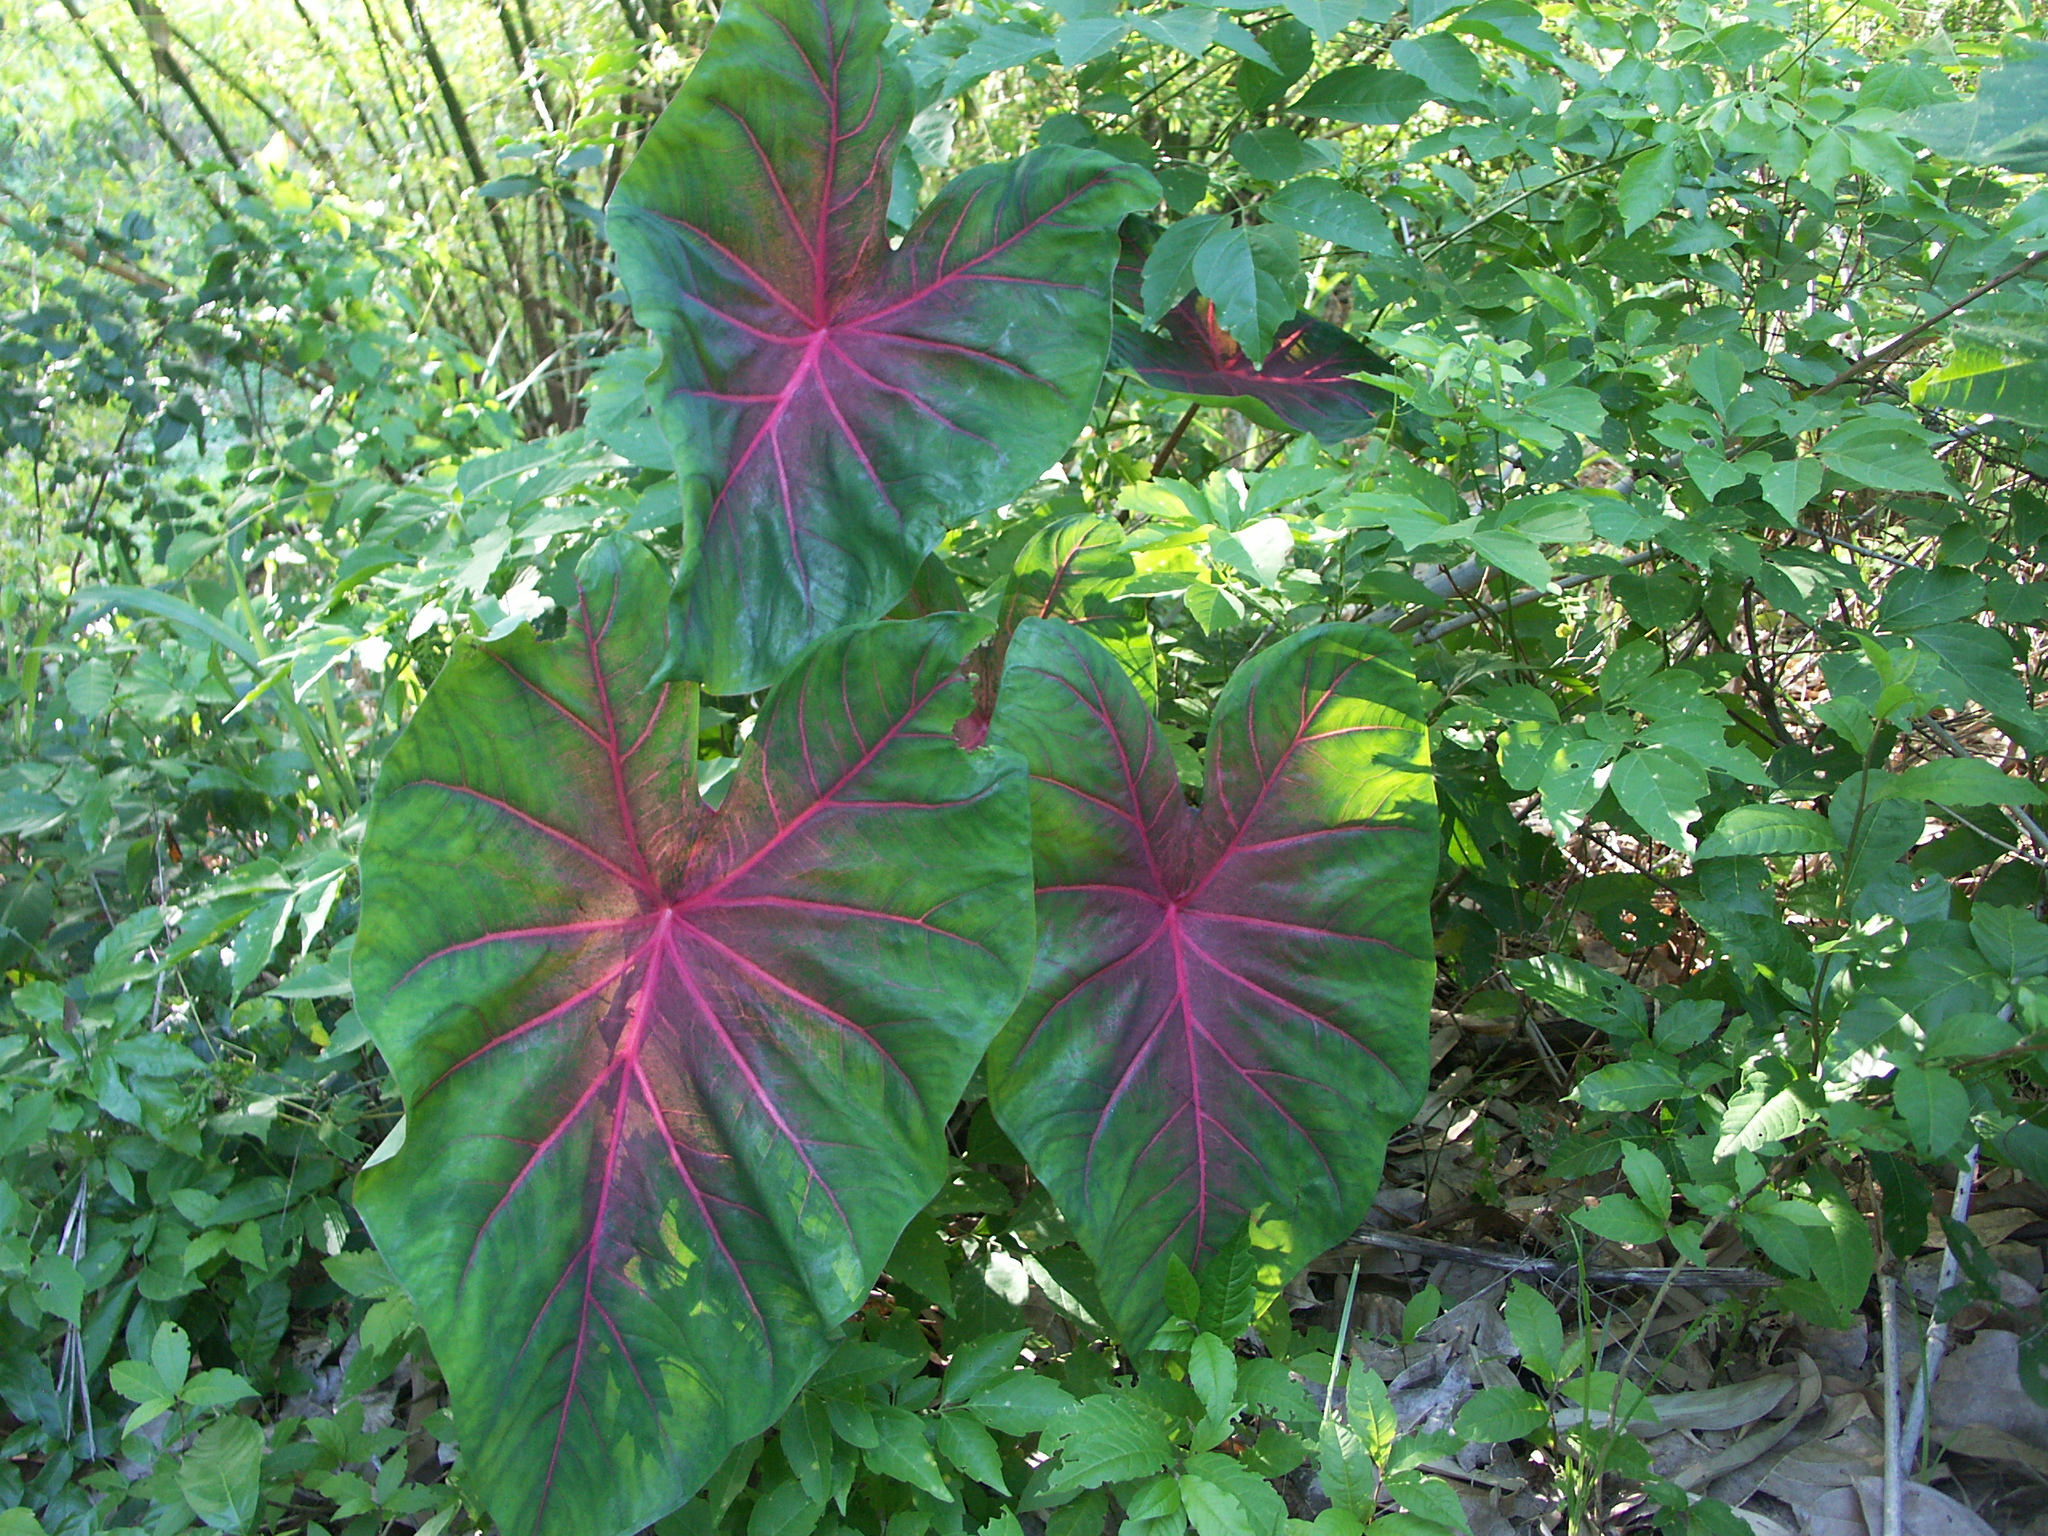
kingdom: Plantae
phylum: Tracheophyta
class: Liliopsida
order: Alismatales
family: Araceae
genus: Caladium
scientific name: Caladium bicolor
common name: Artist's pallet
